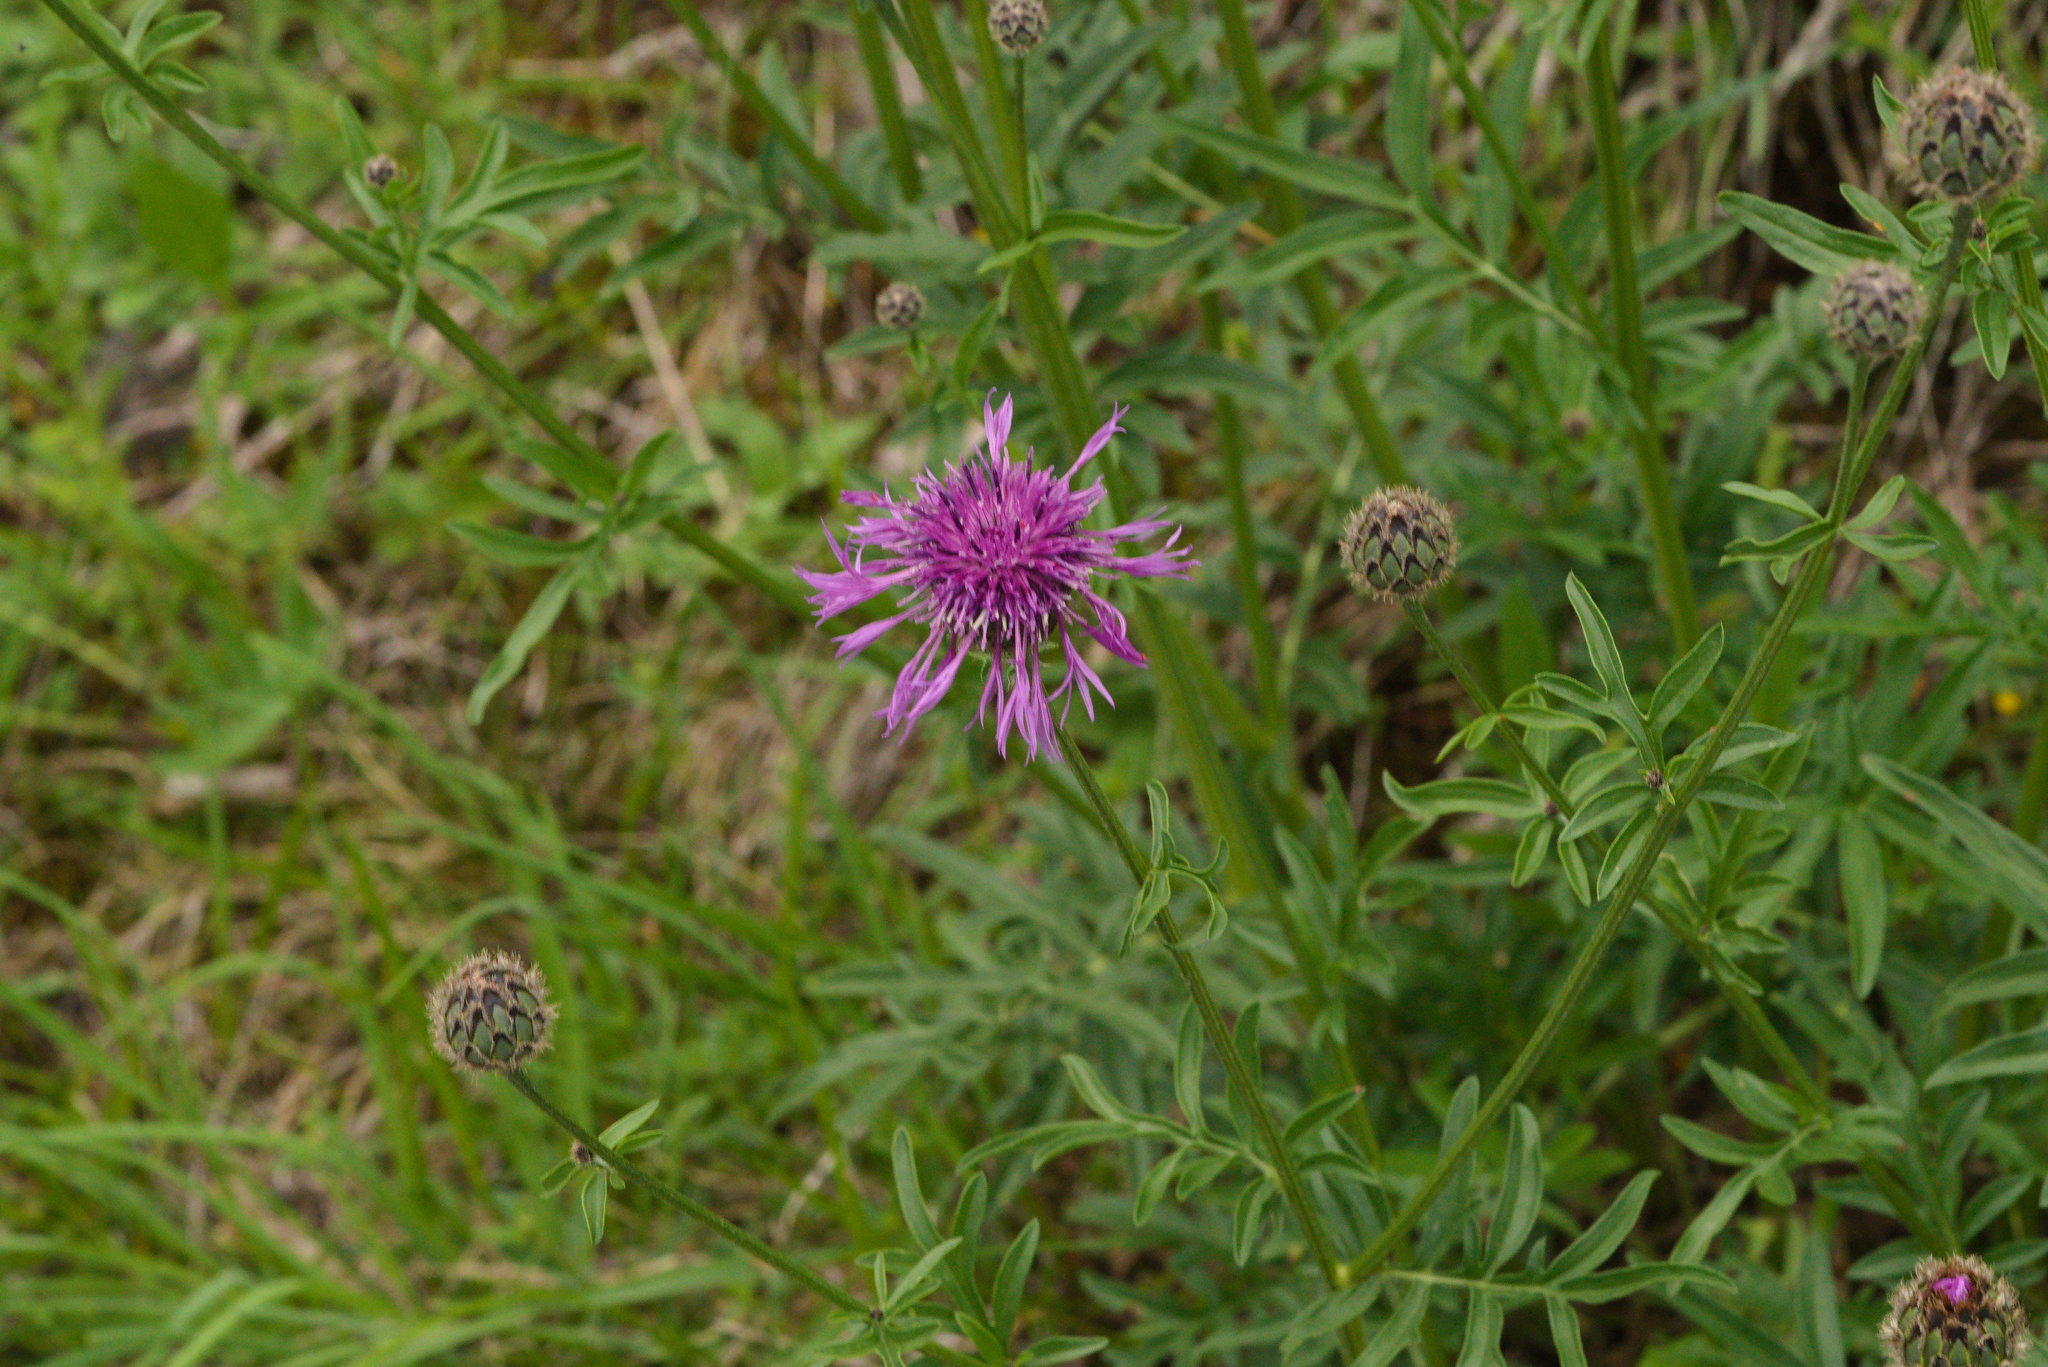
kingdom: Plantae
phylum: Tracheophyta
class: Magnoliopsida
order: Asterales
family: Asteraceae
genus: Centaurea
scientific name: Centaurea scabiosa
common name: Greater knapweed
